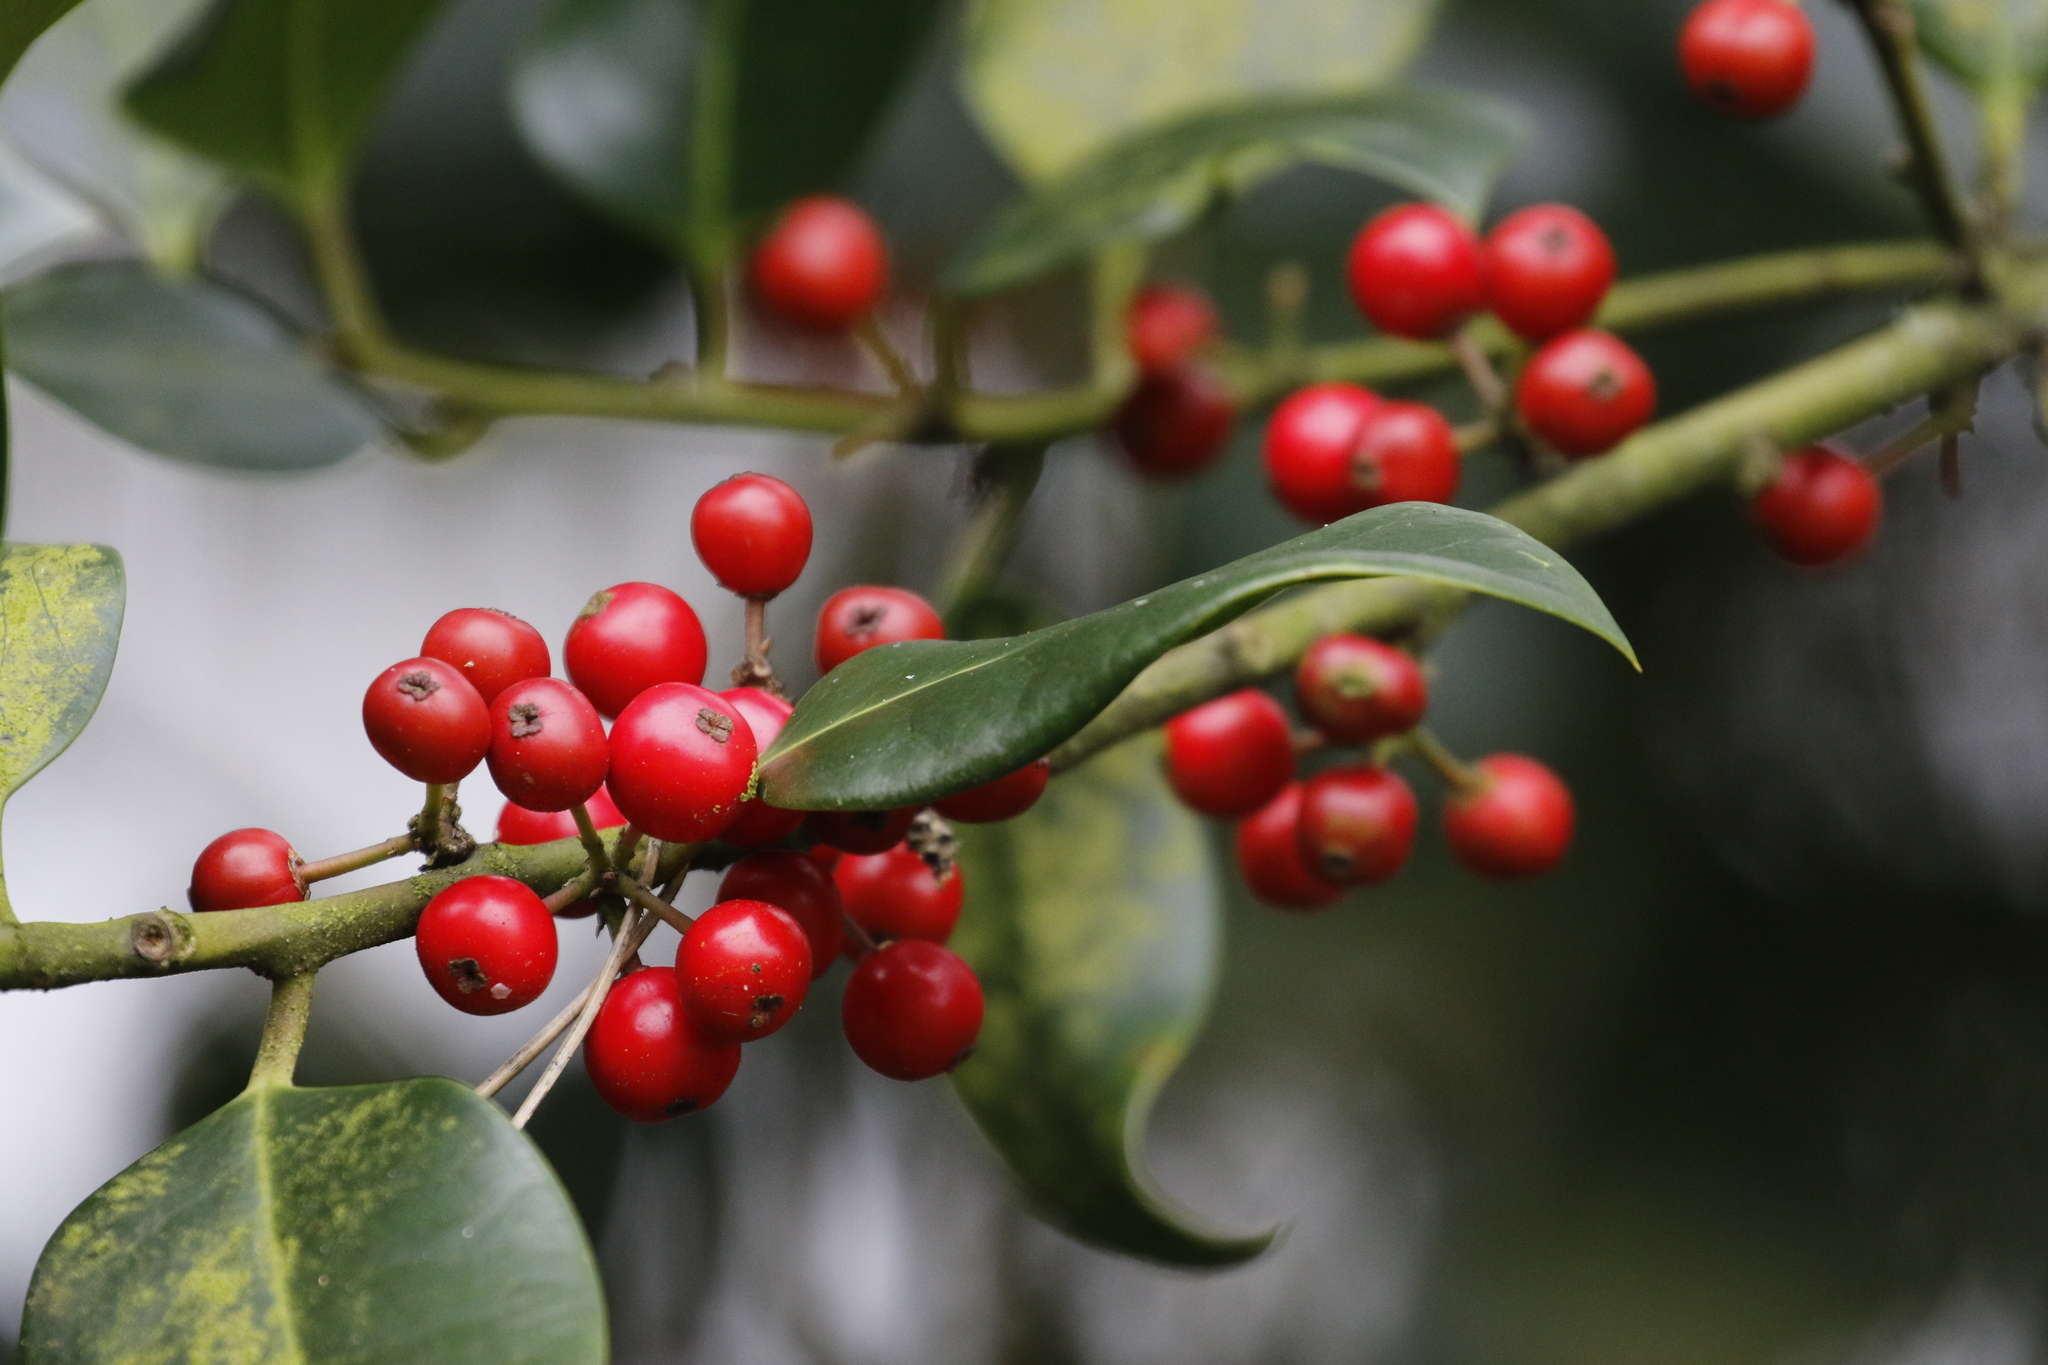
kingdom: Plantae
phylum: Tracheophyta
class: Magnoliopsida
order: Aquifoliales
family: Aquifoliaceae
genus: Ilex
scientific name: Ilex altaclerensis
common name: Highclere holly
